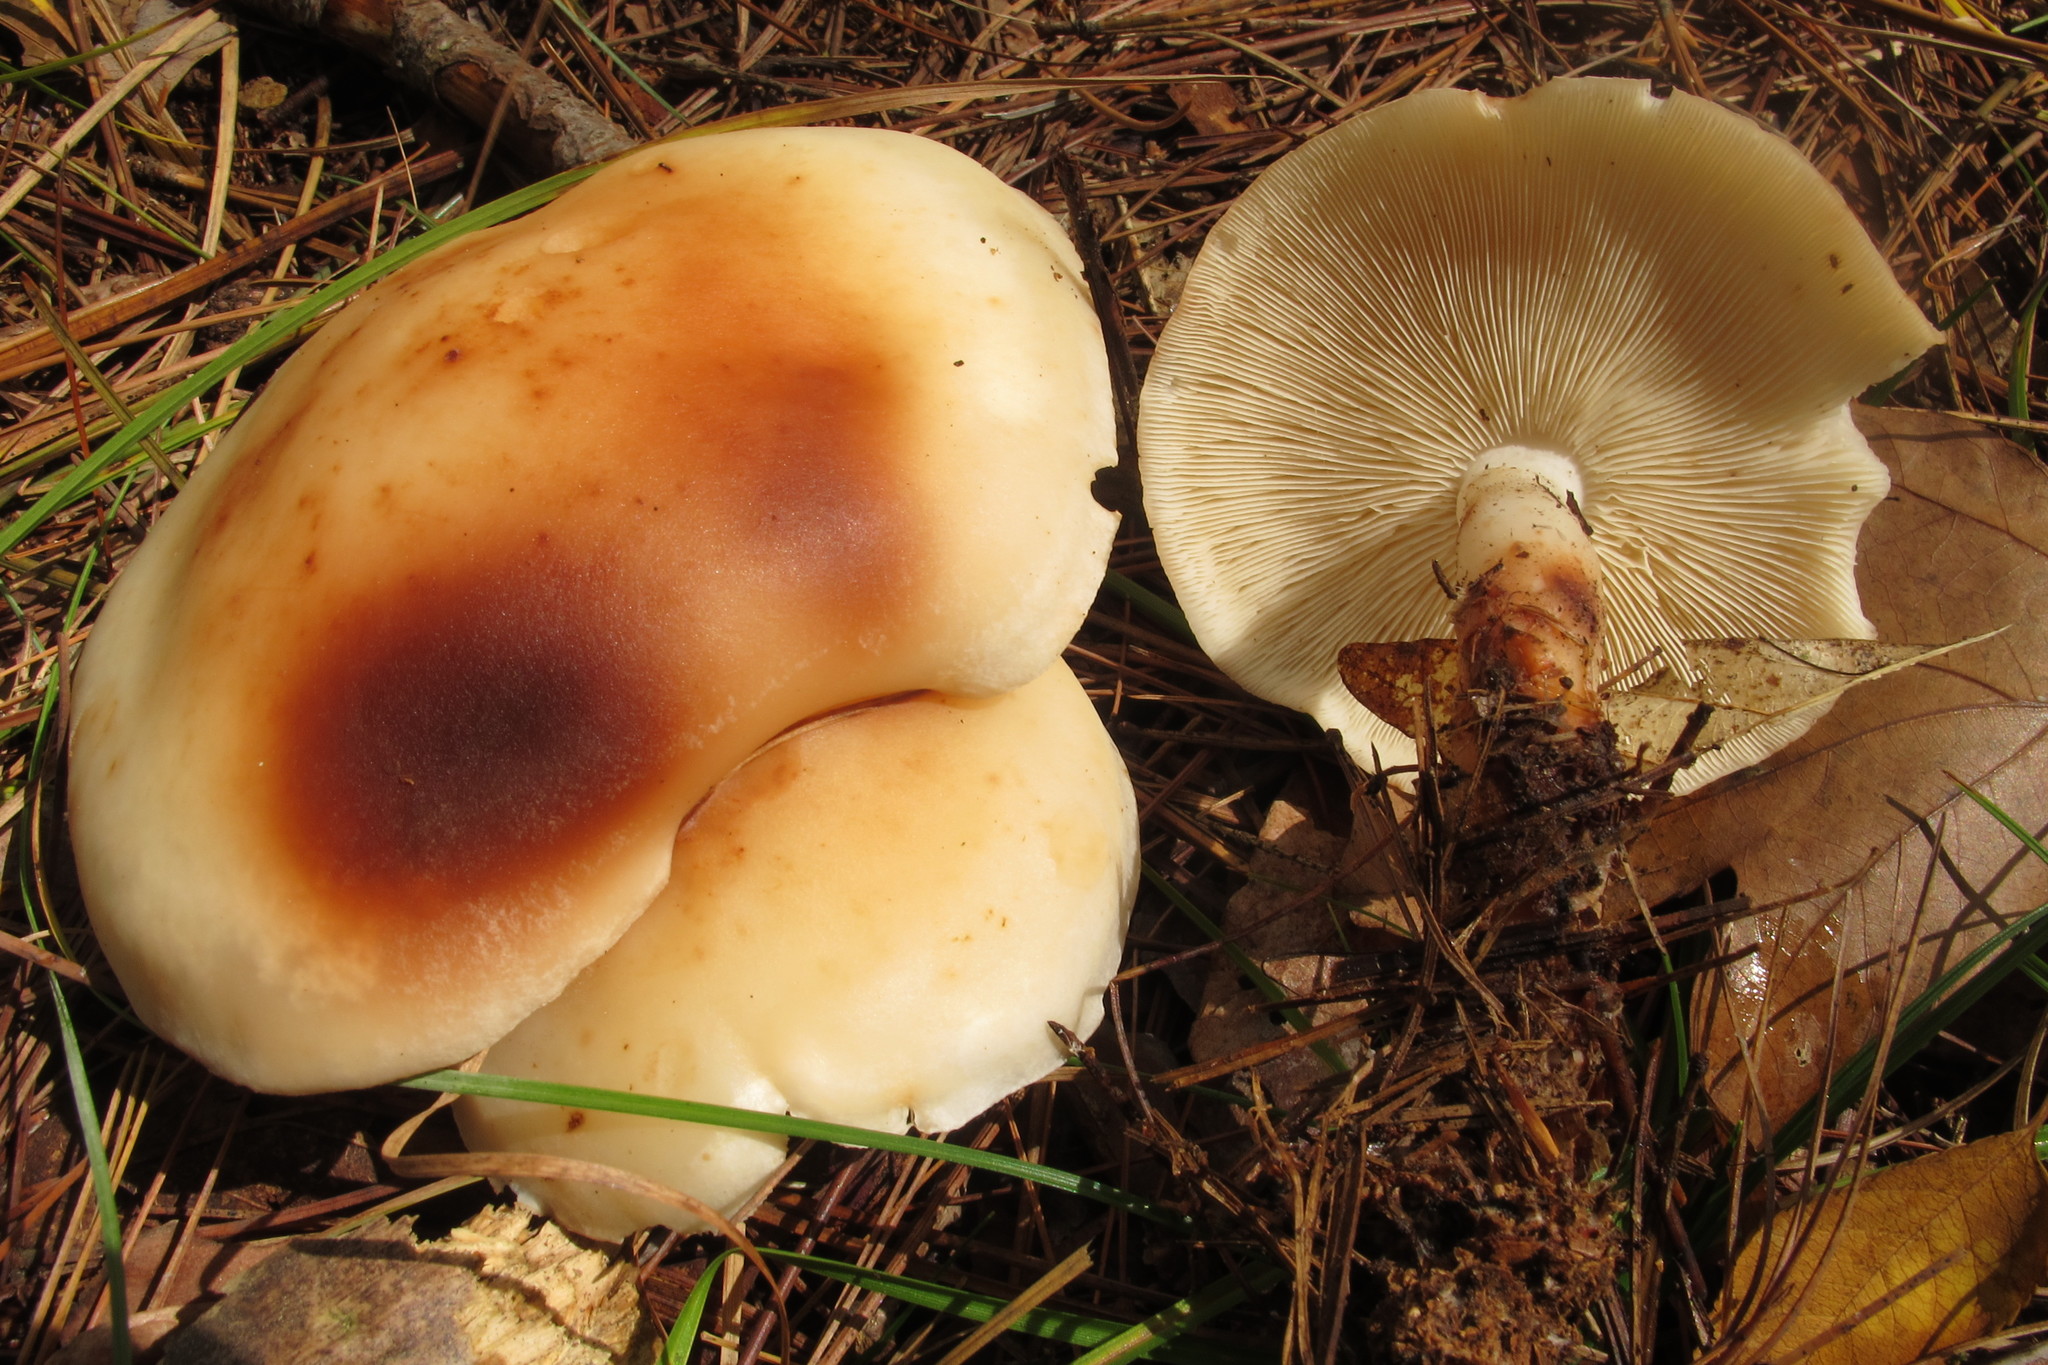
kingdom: Fungi
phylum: Basidiomycota
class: Agaricomycetes
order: Agaricales
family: Omphalotaceae
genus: Rhodocollybia
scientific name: Rhodocollybia maculata
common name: Spotted tough-shank
